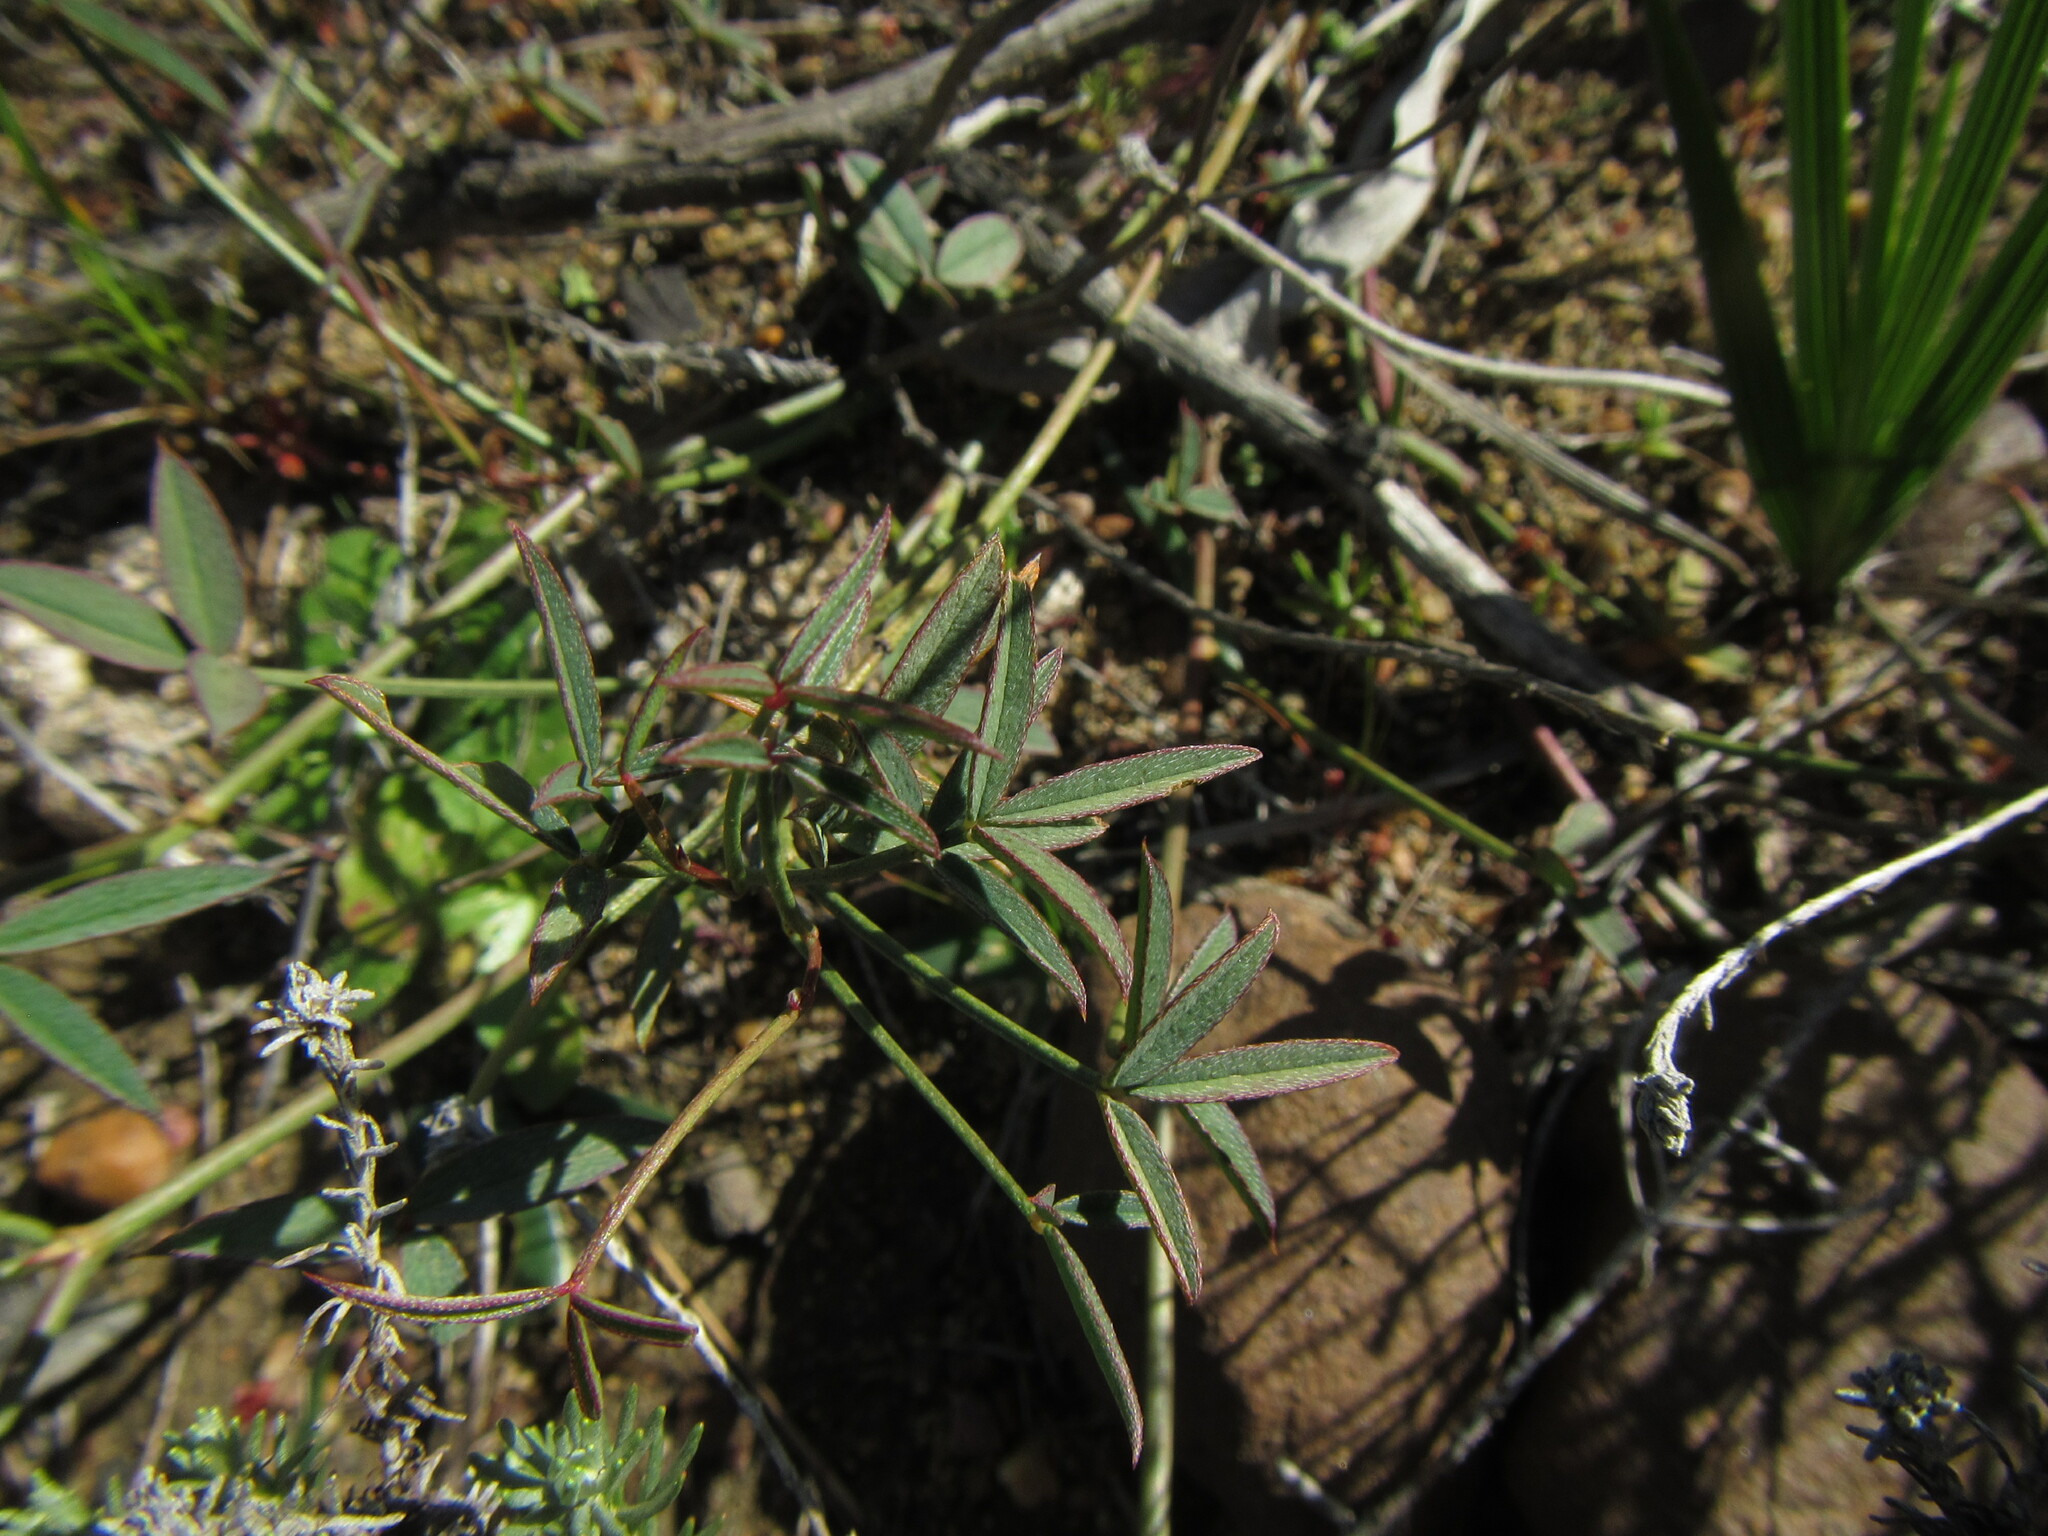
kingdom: Plantae
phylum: Tracheophyta
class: Magnoliopsida
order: Fabales
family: Fabaceae
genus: Indigofera
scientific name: Indigofera heterophylla
